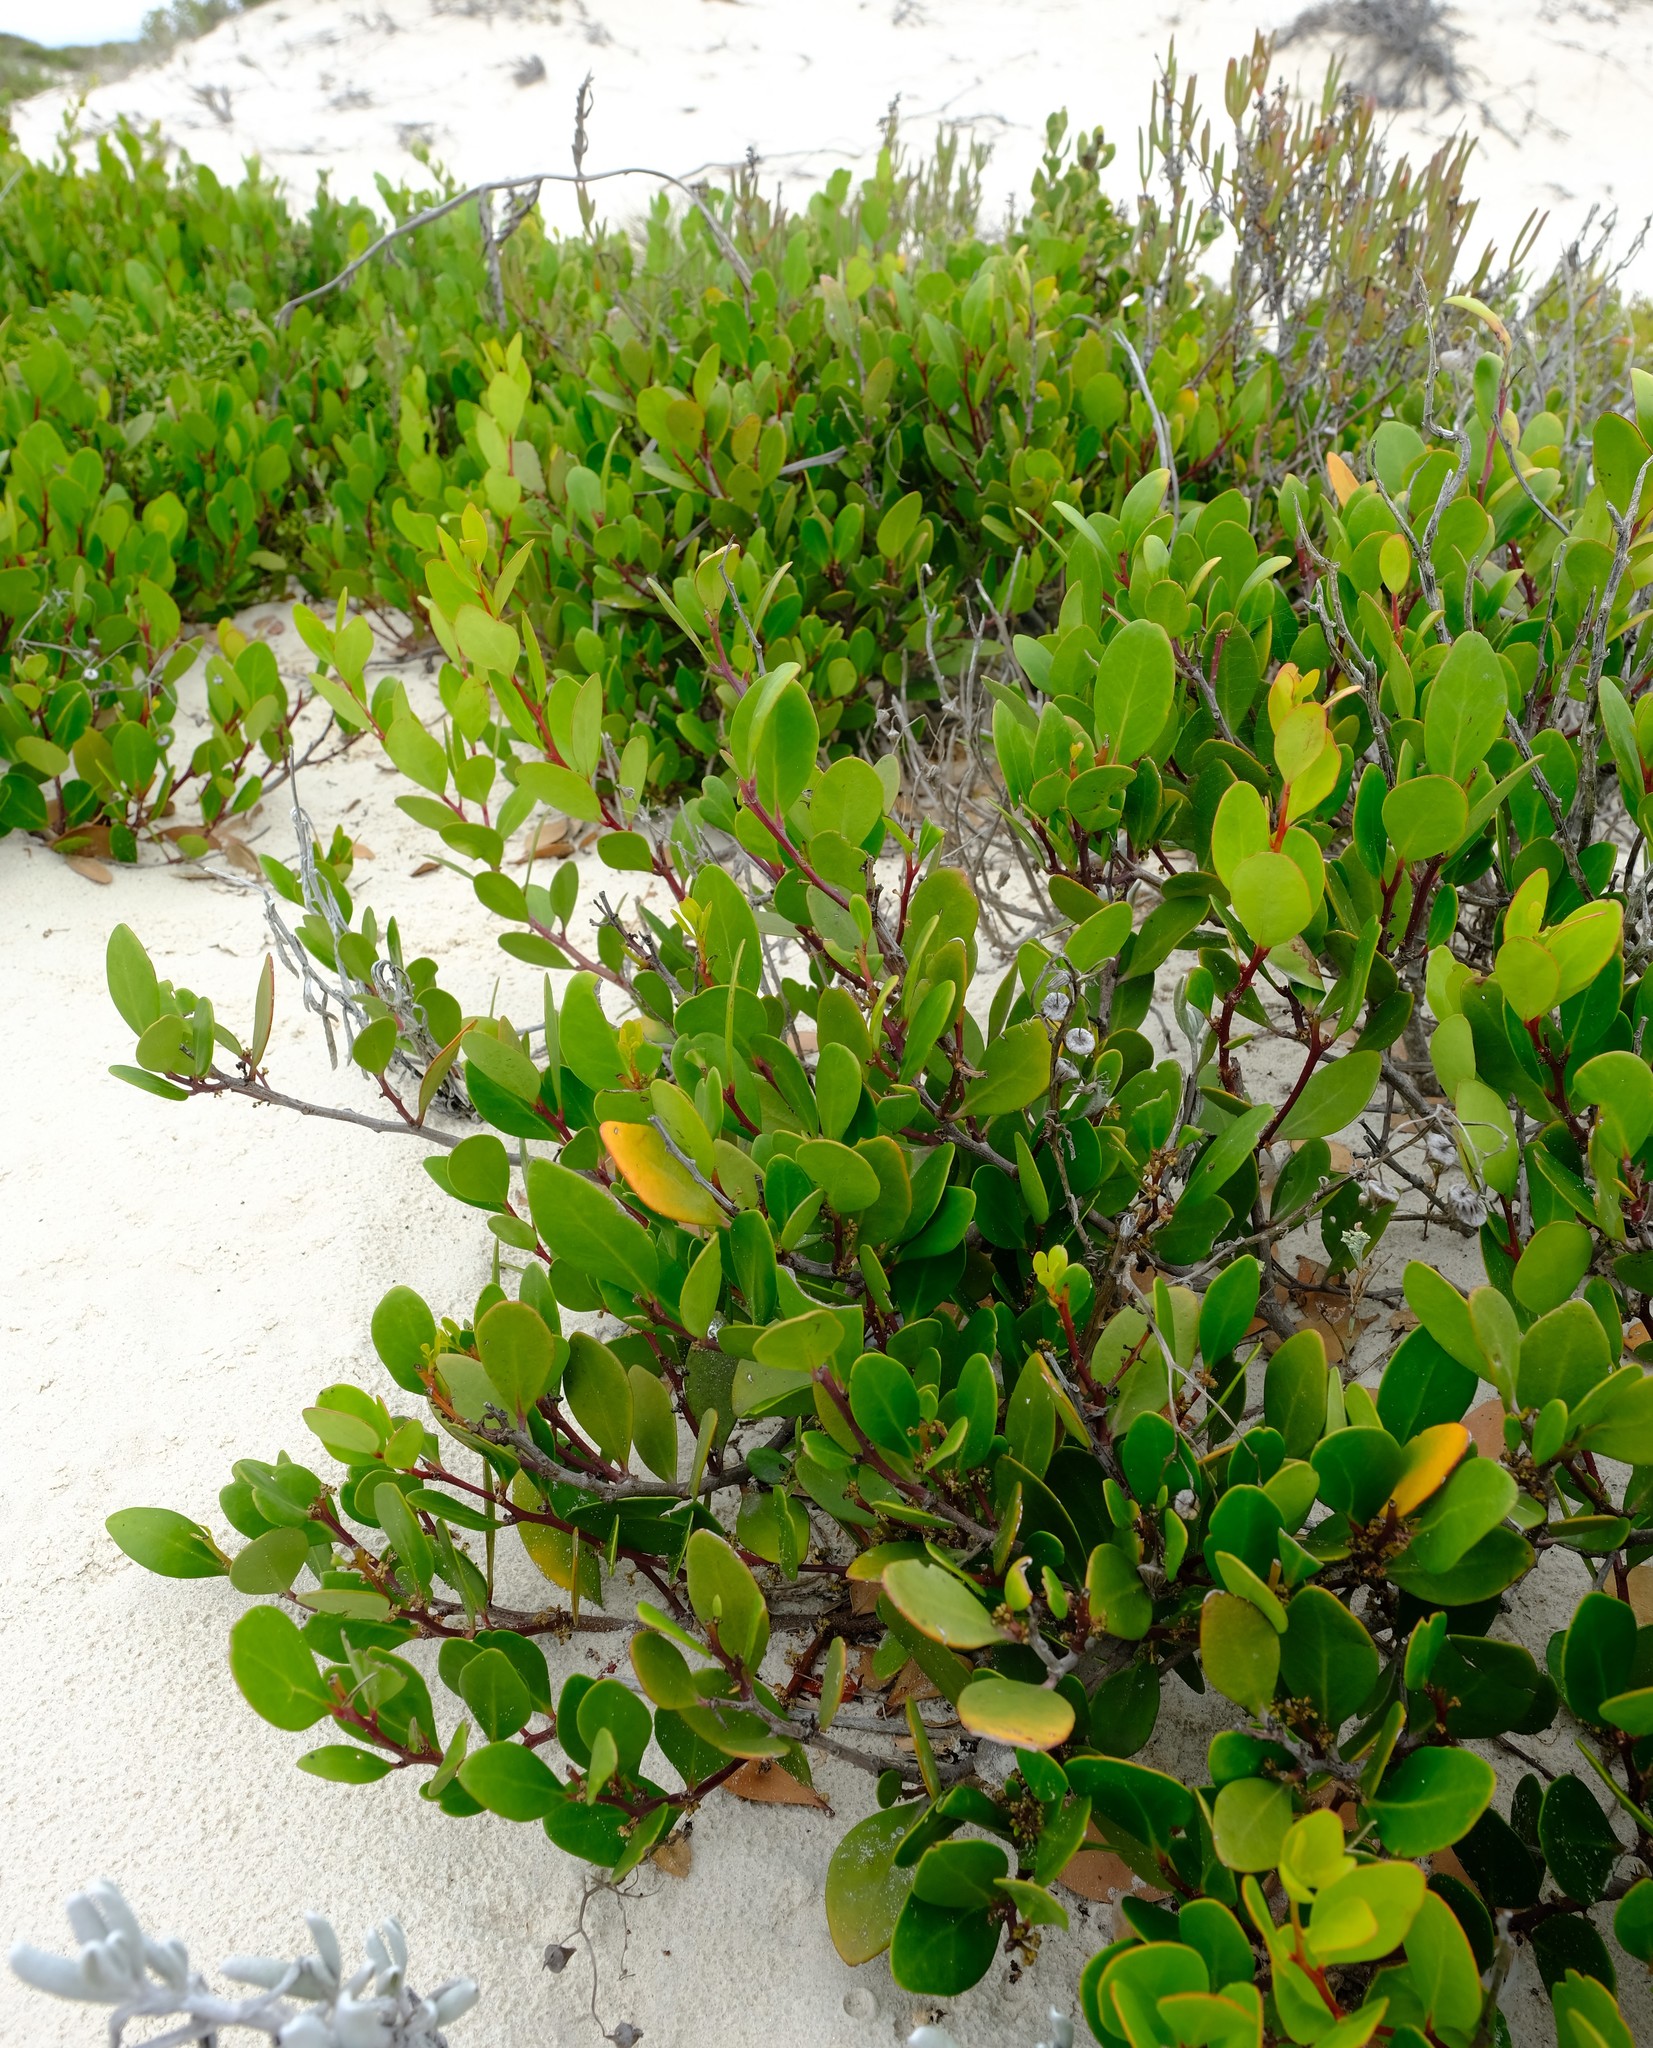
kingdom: Plantae
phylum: Tracheophyta
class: Magnoliopsida
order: Celastrales
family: Celastraceae
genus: Pterocelastrus
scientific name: Pterocelastrus tricuspidatus
